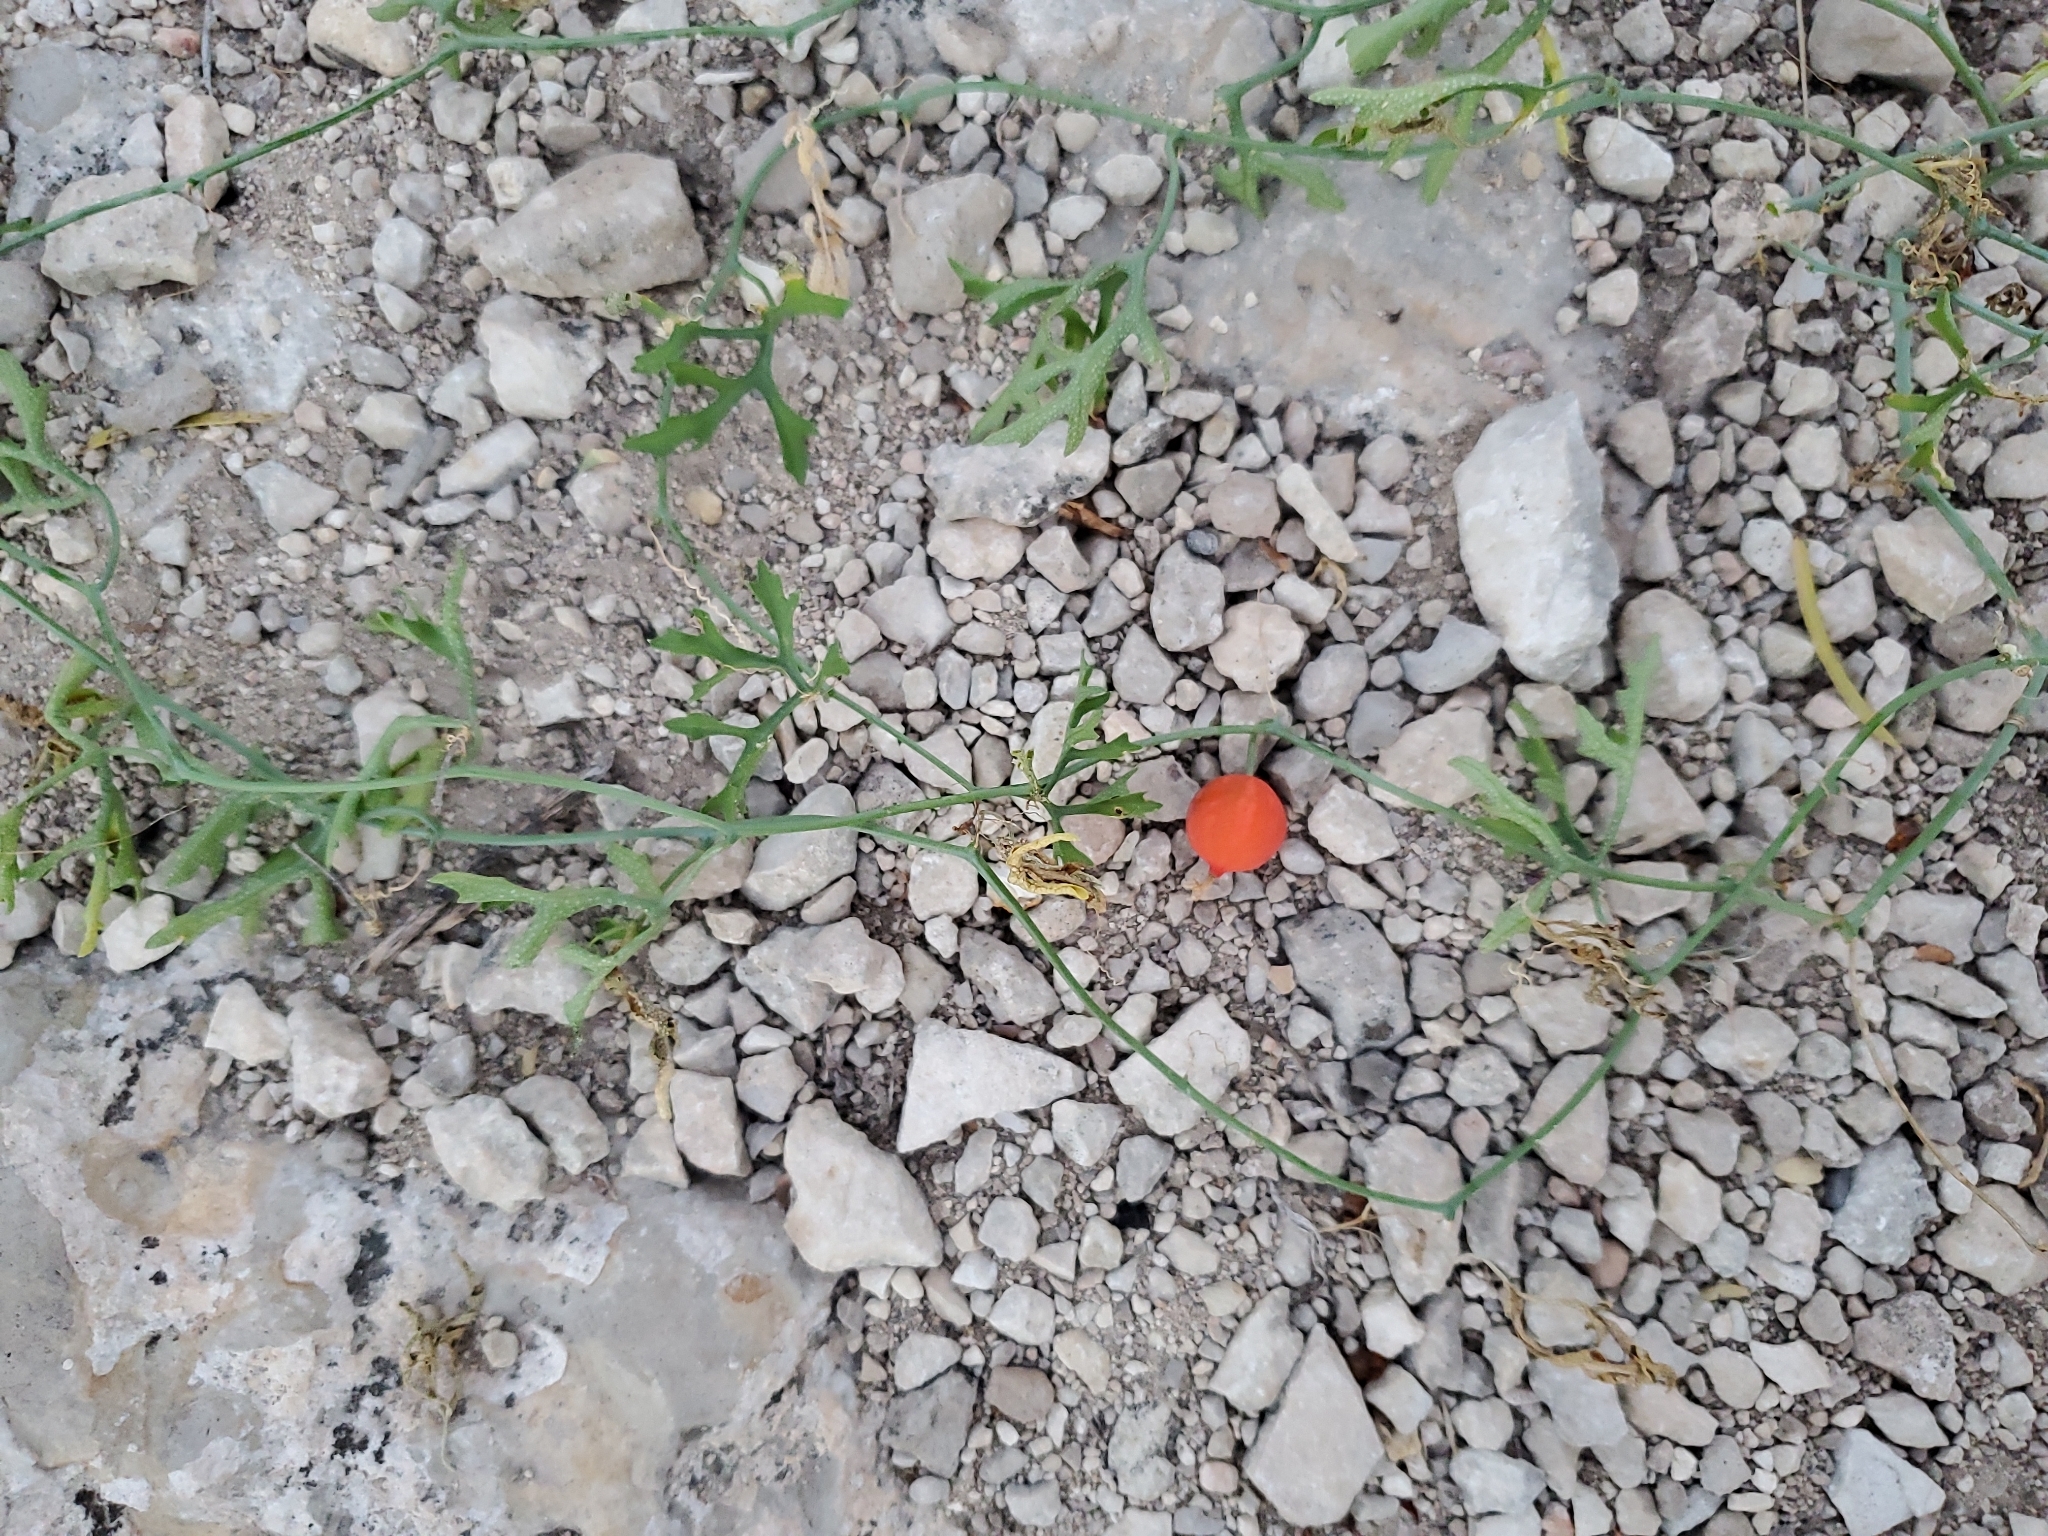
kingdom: Plantae
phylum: Tracheophyta
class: Magnoliopsida
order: Cucurbitales
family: Cucurbitaceae
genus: Ibervillea
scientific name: Ibervillea lindheimeri
